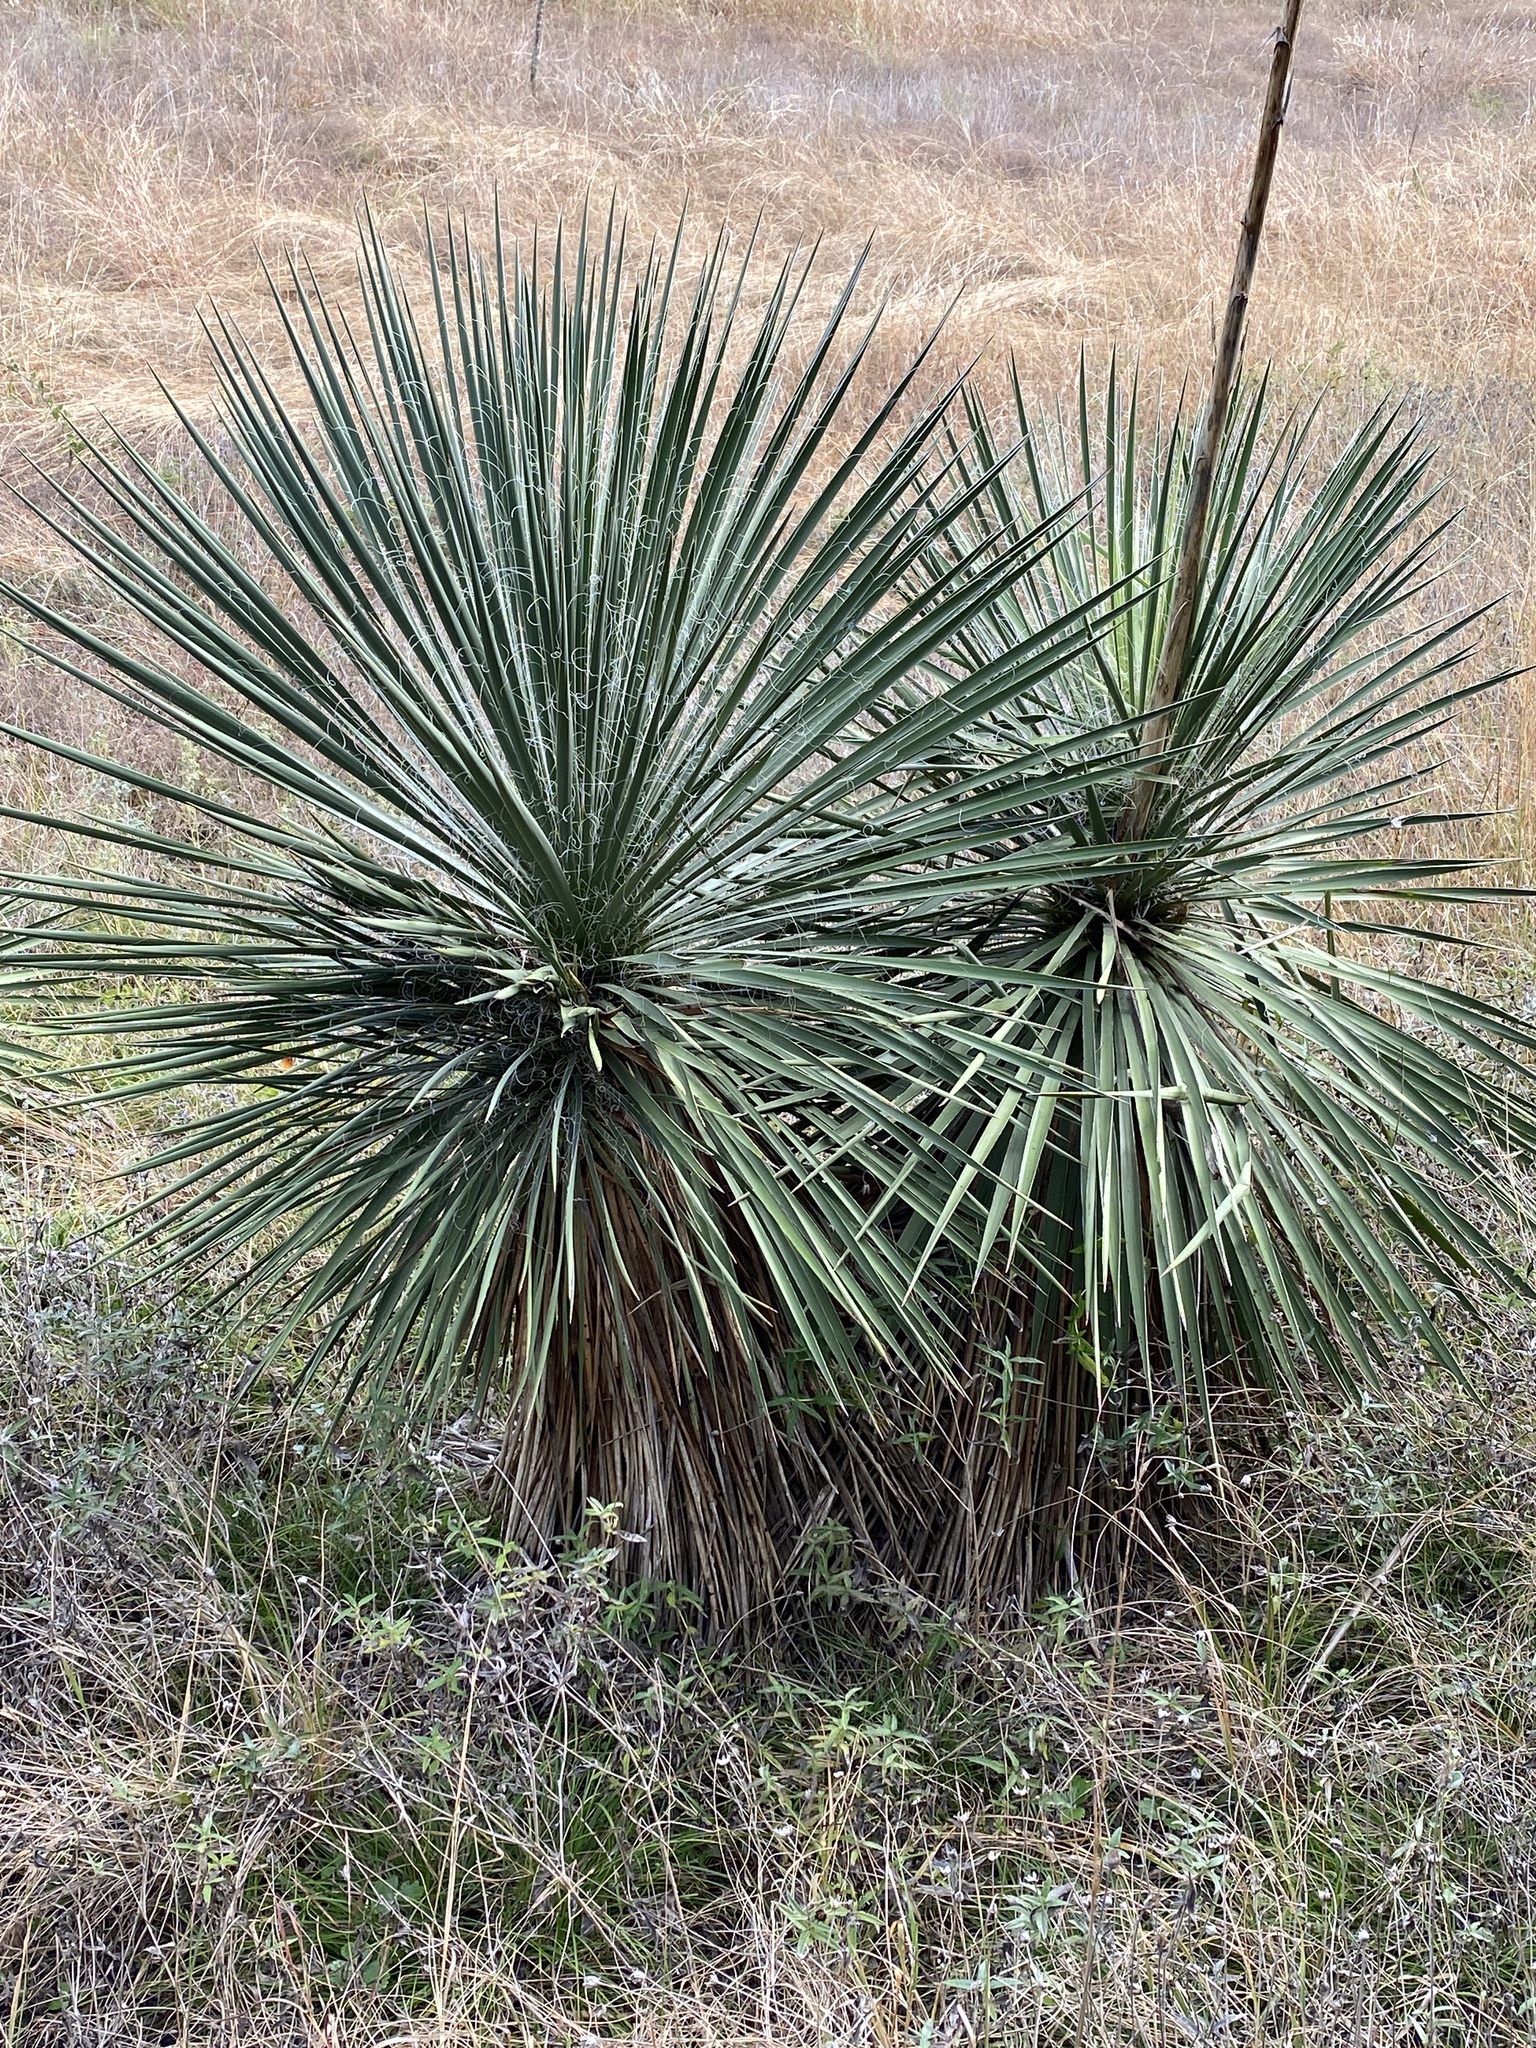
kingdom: Plantae
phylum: Tracheophyta
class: Liliopsida
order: Asparagales
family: Asparagaceae
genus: Yucca
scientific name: Yucca constricta
